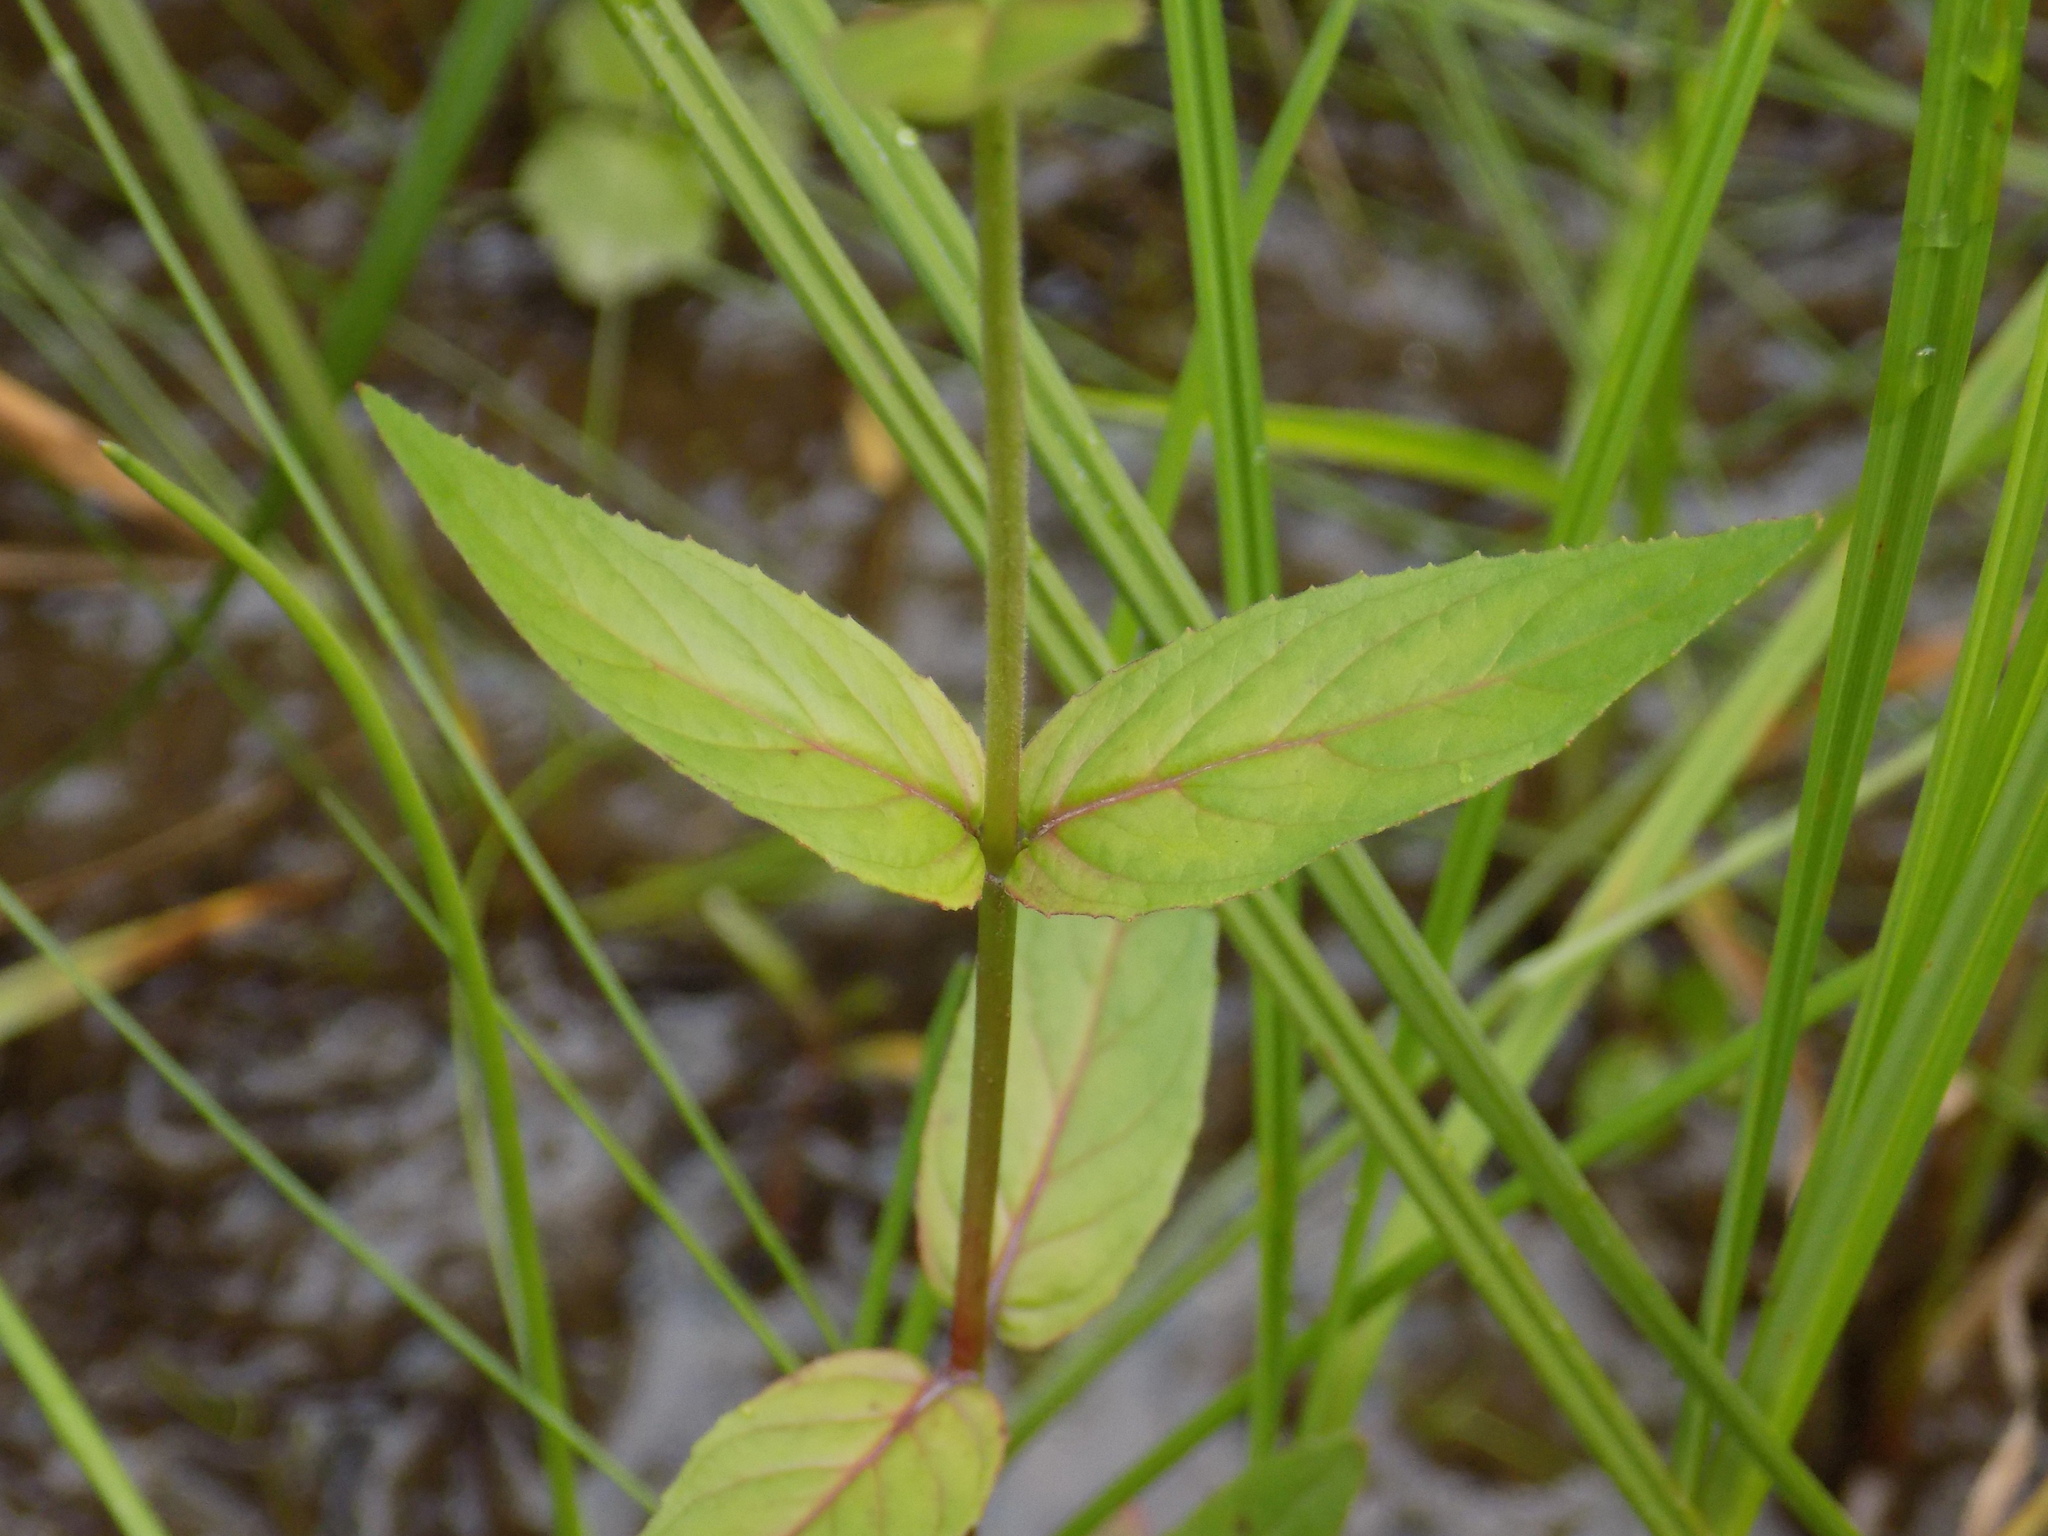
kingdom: Plantae
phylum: Tracheophyta
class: Magnoliopsida
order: Myrtales
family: Onagraceae
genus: Epilobium
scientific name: Epilobium ciliatum
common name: American willowherb
